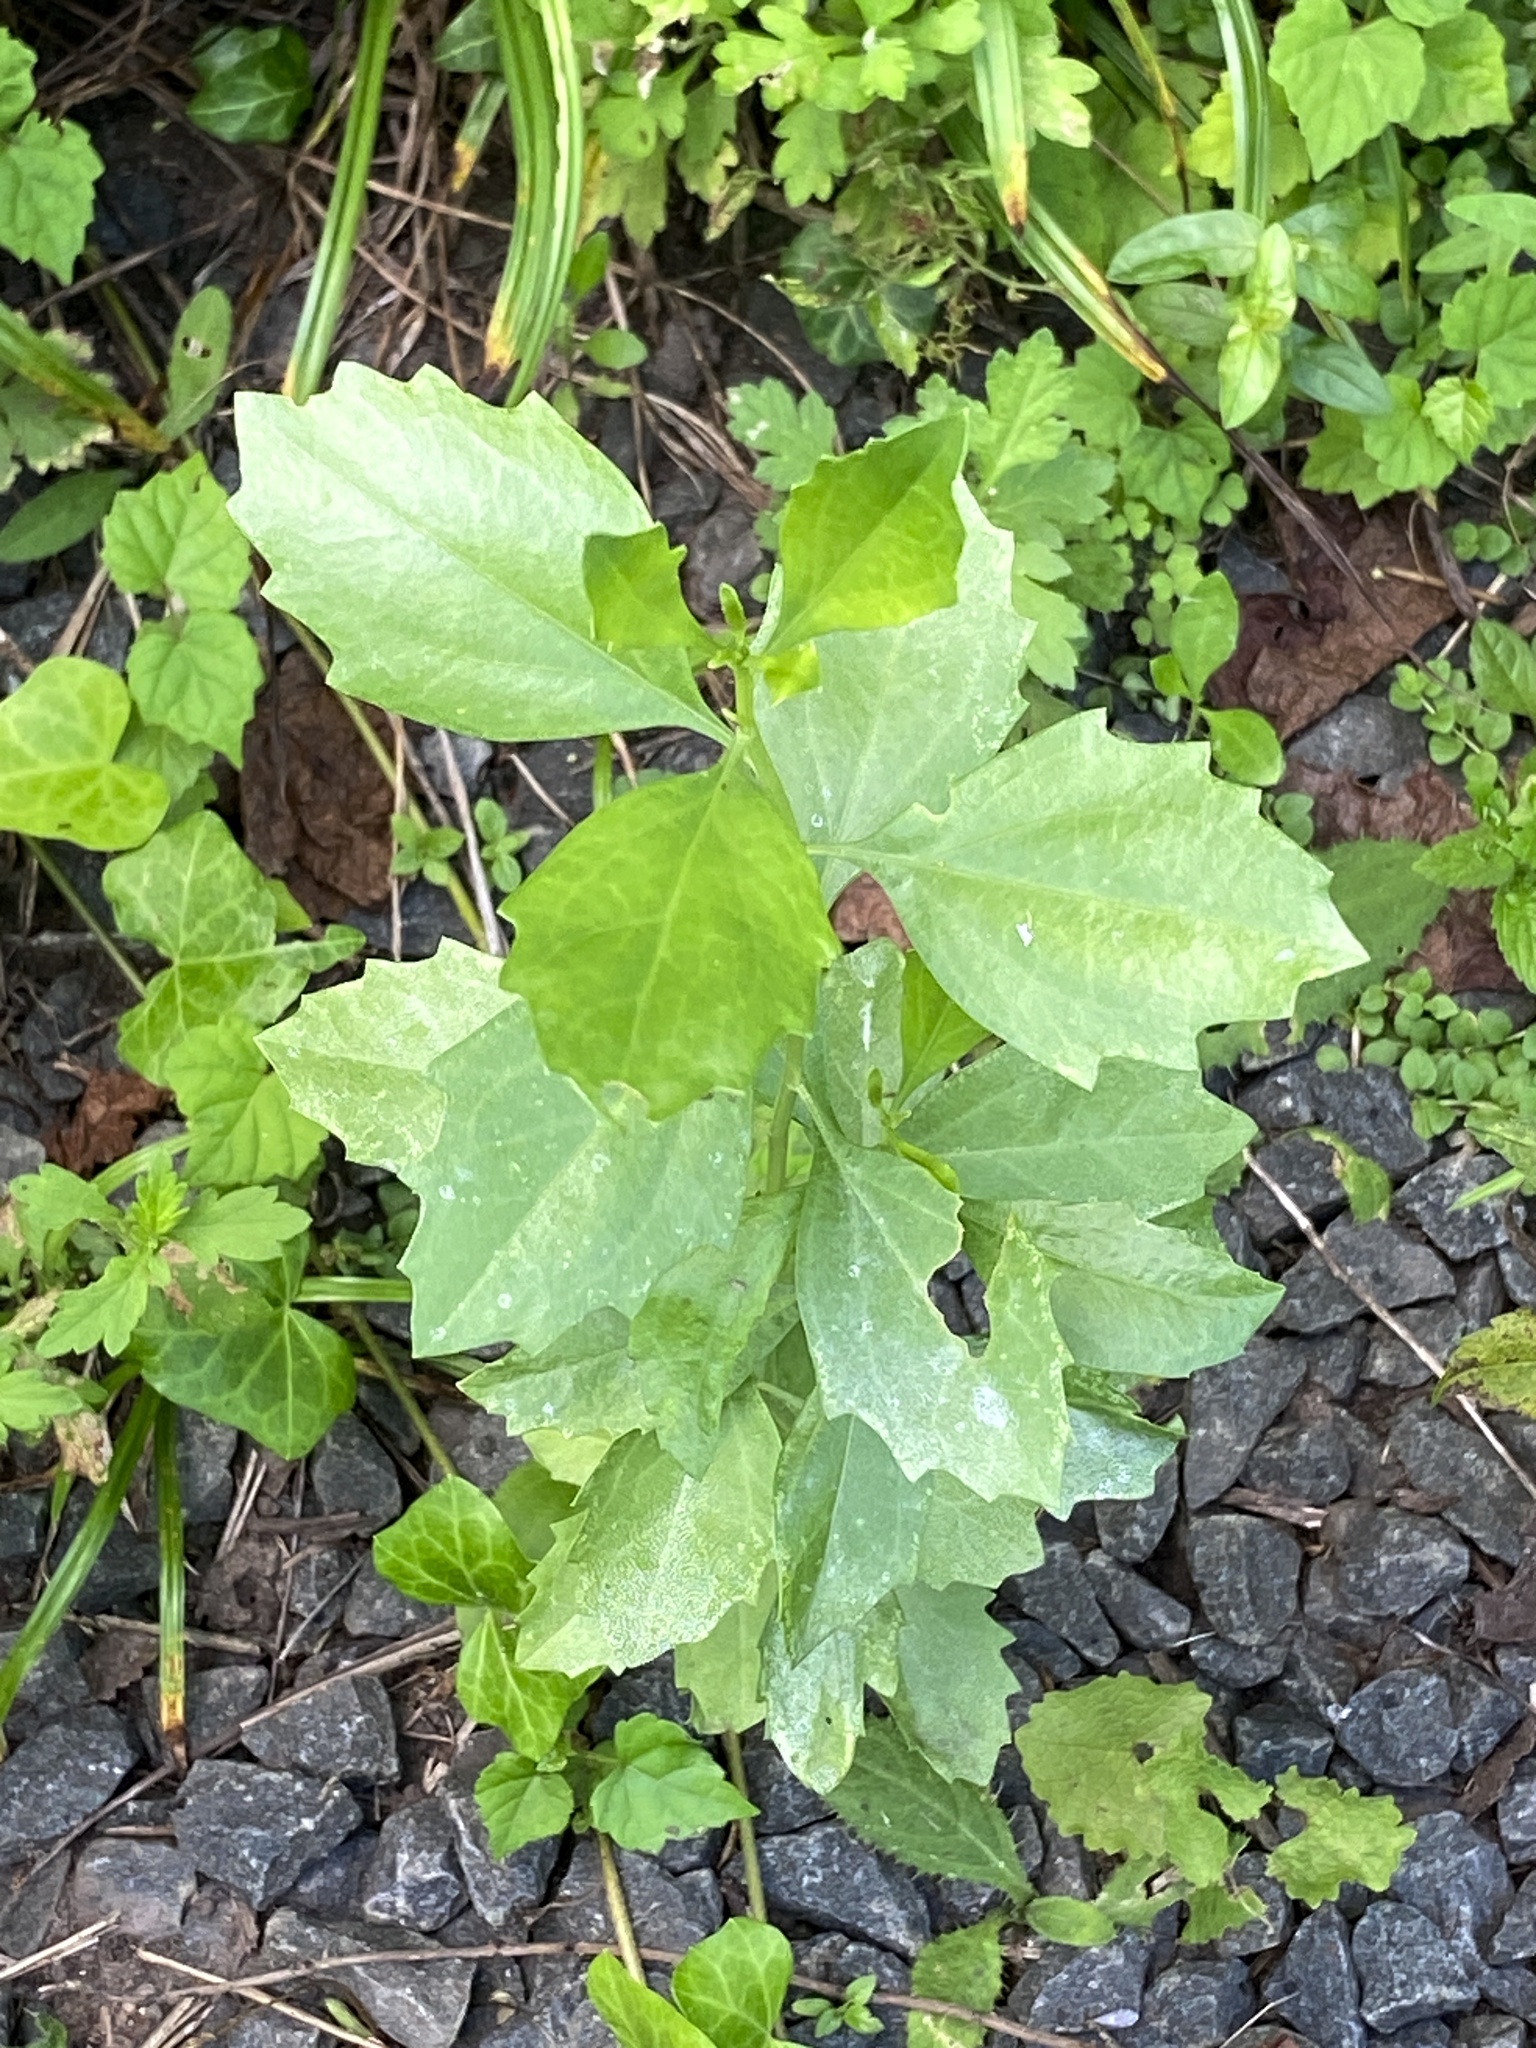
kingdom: Plantae
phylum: Tracheophyta
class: Magnoliopsida
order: Asterales
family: Asteraceae
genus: Baccharis
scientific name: Baccharis halimifolia
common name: Eastern baccharis
